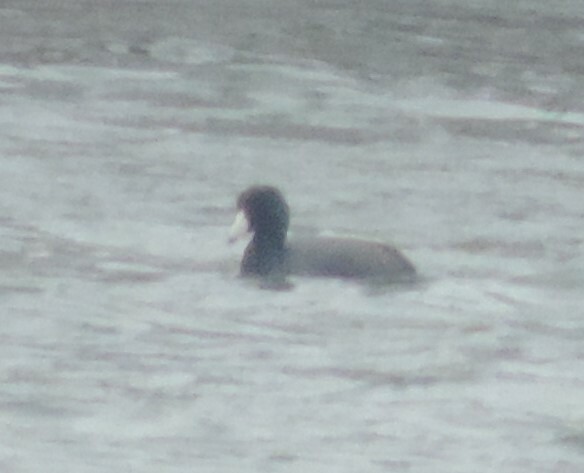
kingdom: Animalia
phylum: Chordata
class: Aves
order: Gruiformes
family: Rallidae
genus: Fulica
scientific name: Fulica americana
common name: American coot
